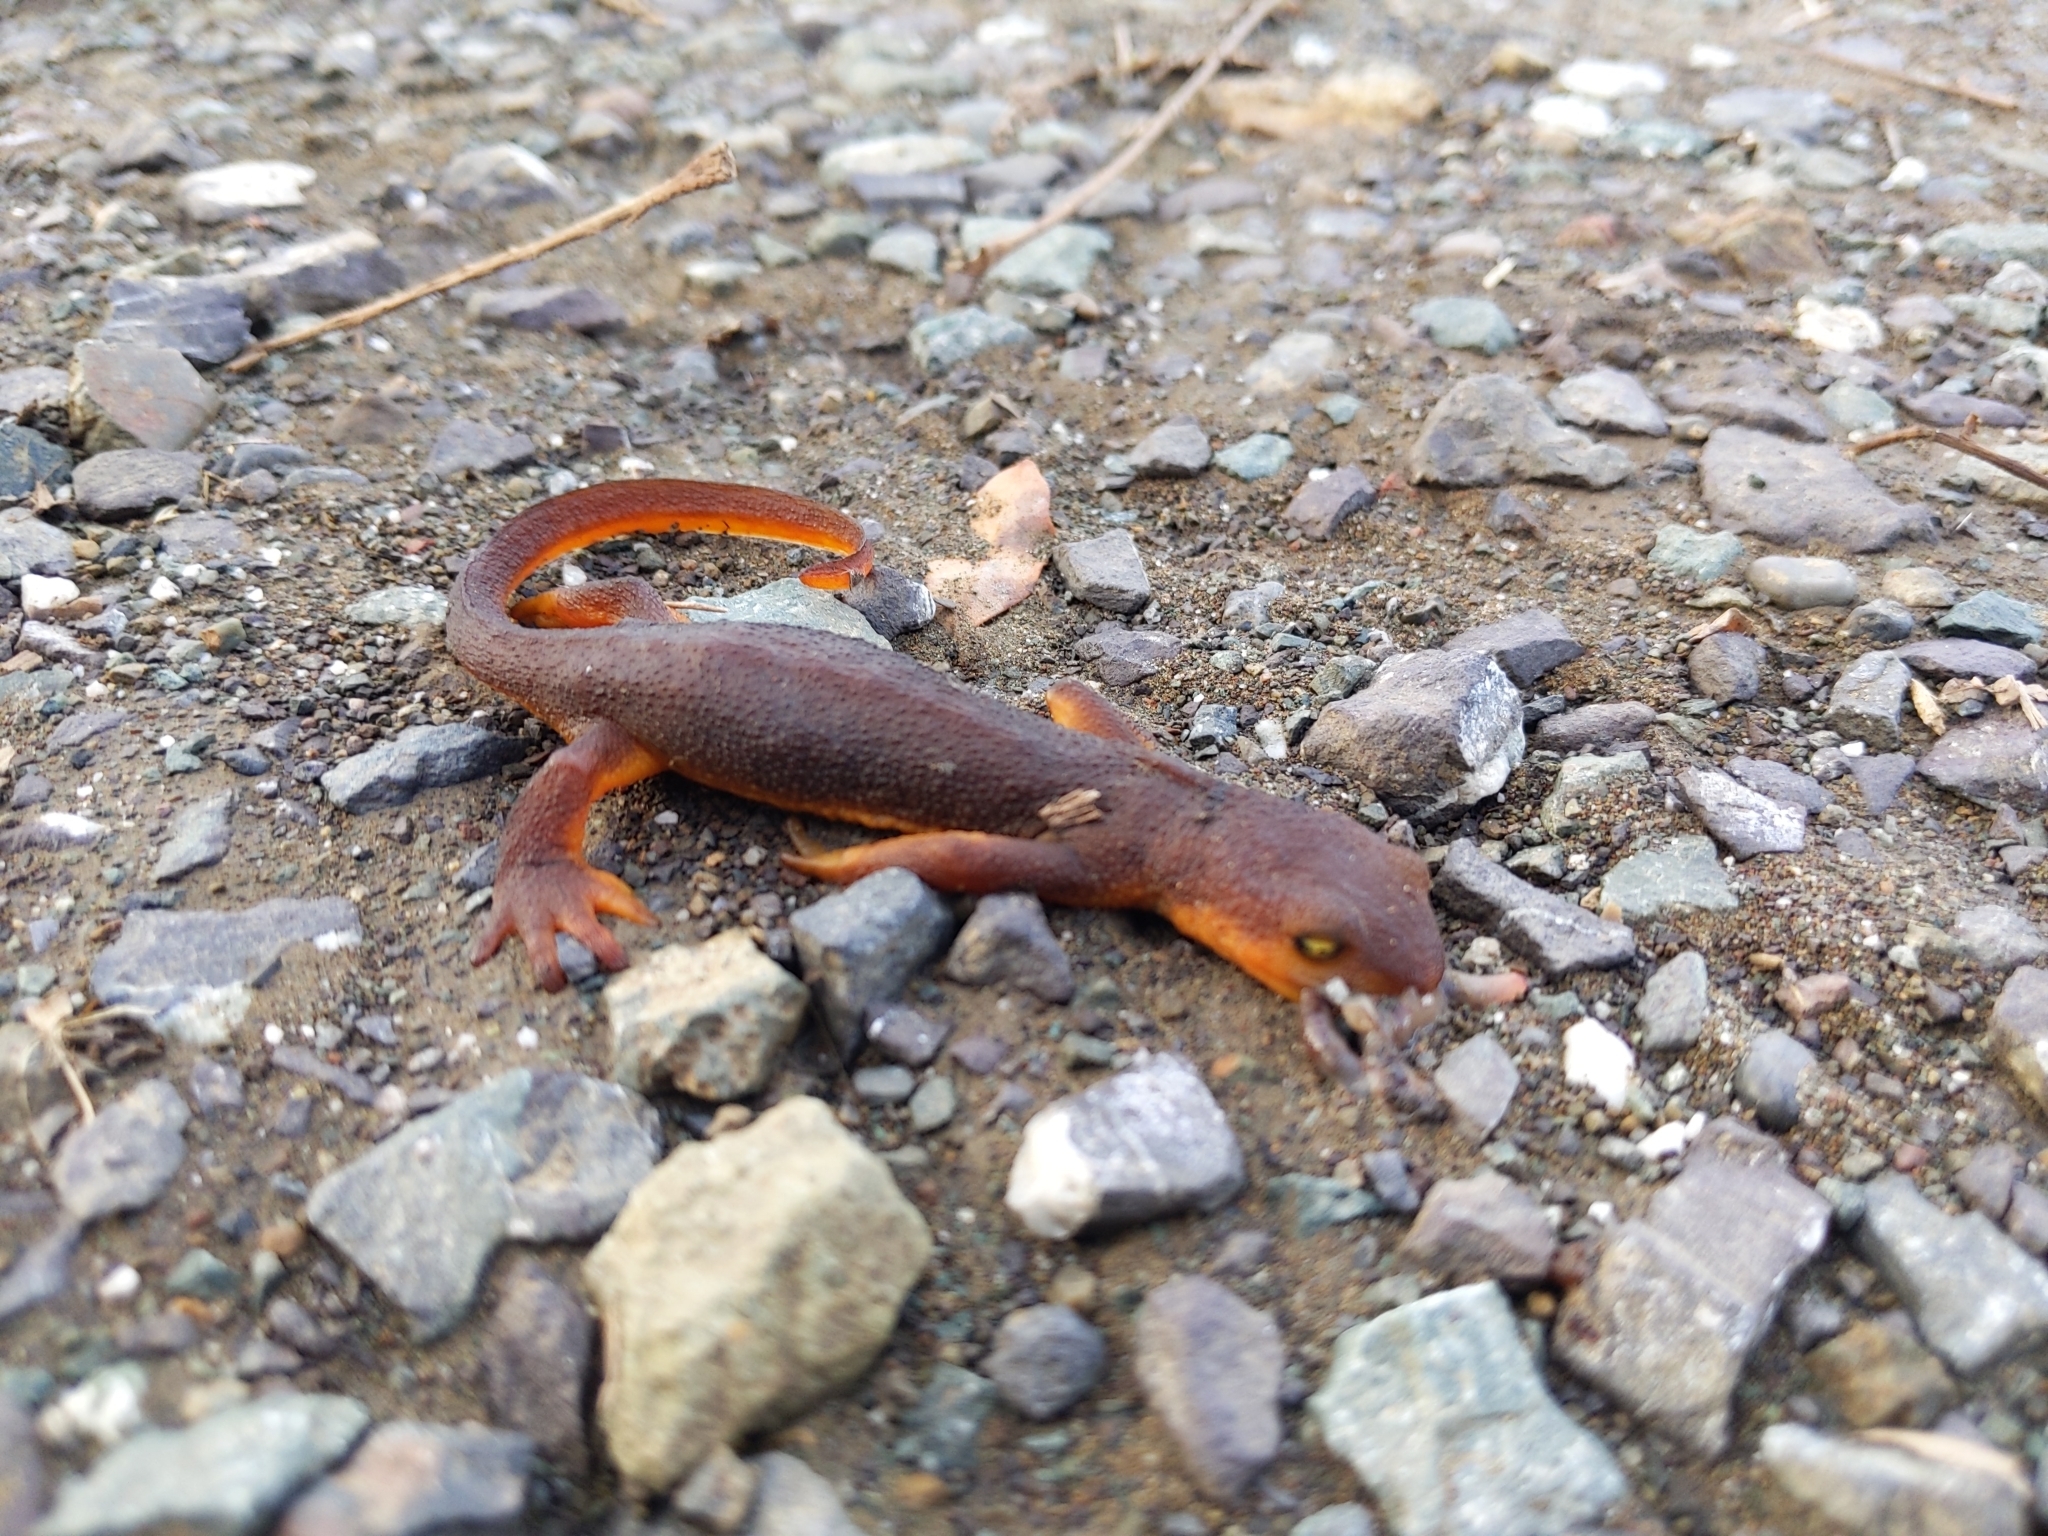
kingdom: Animalia
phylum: Chordata
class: Amphibia
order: Caudata
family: Salamandridae
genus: Taricha
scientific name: Taricha torosa
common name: California newt
